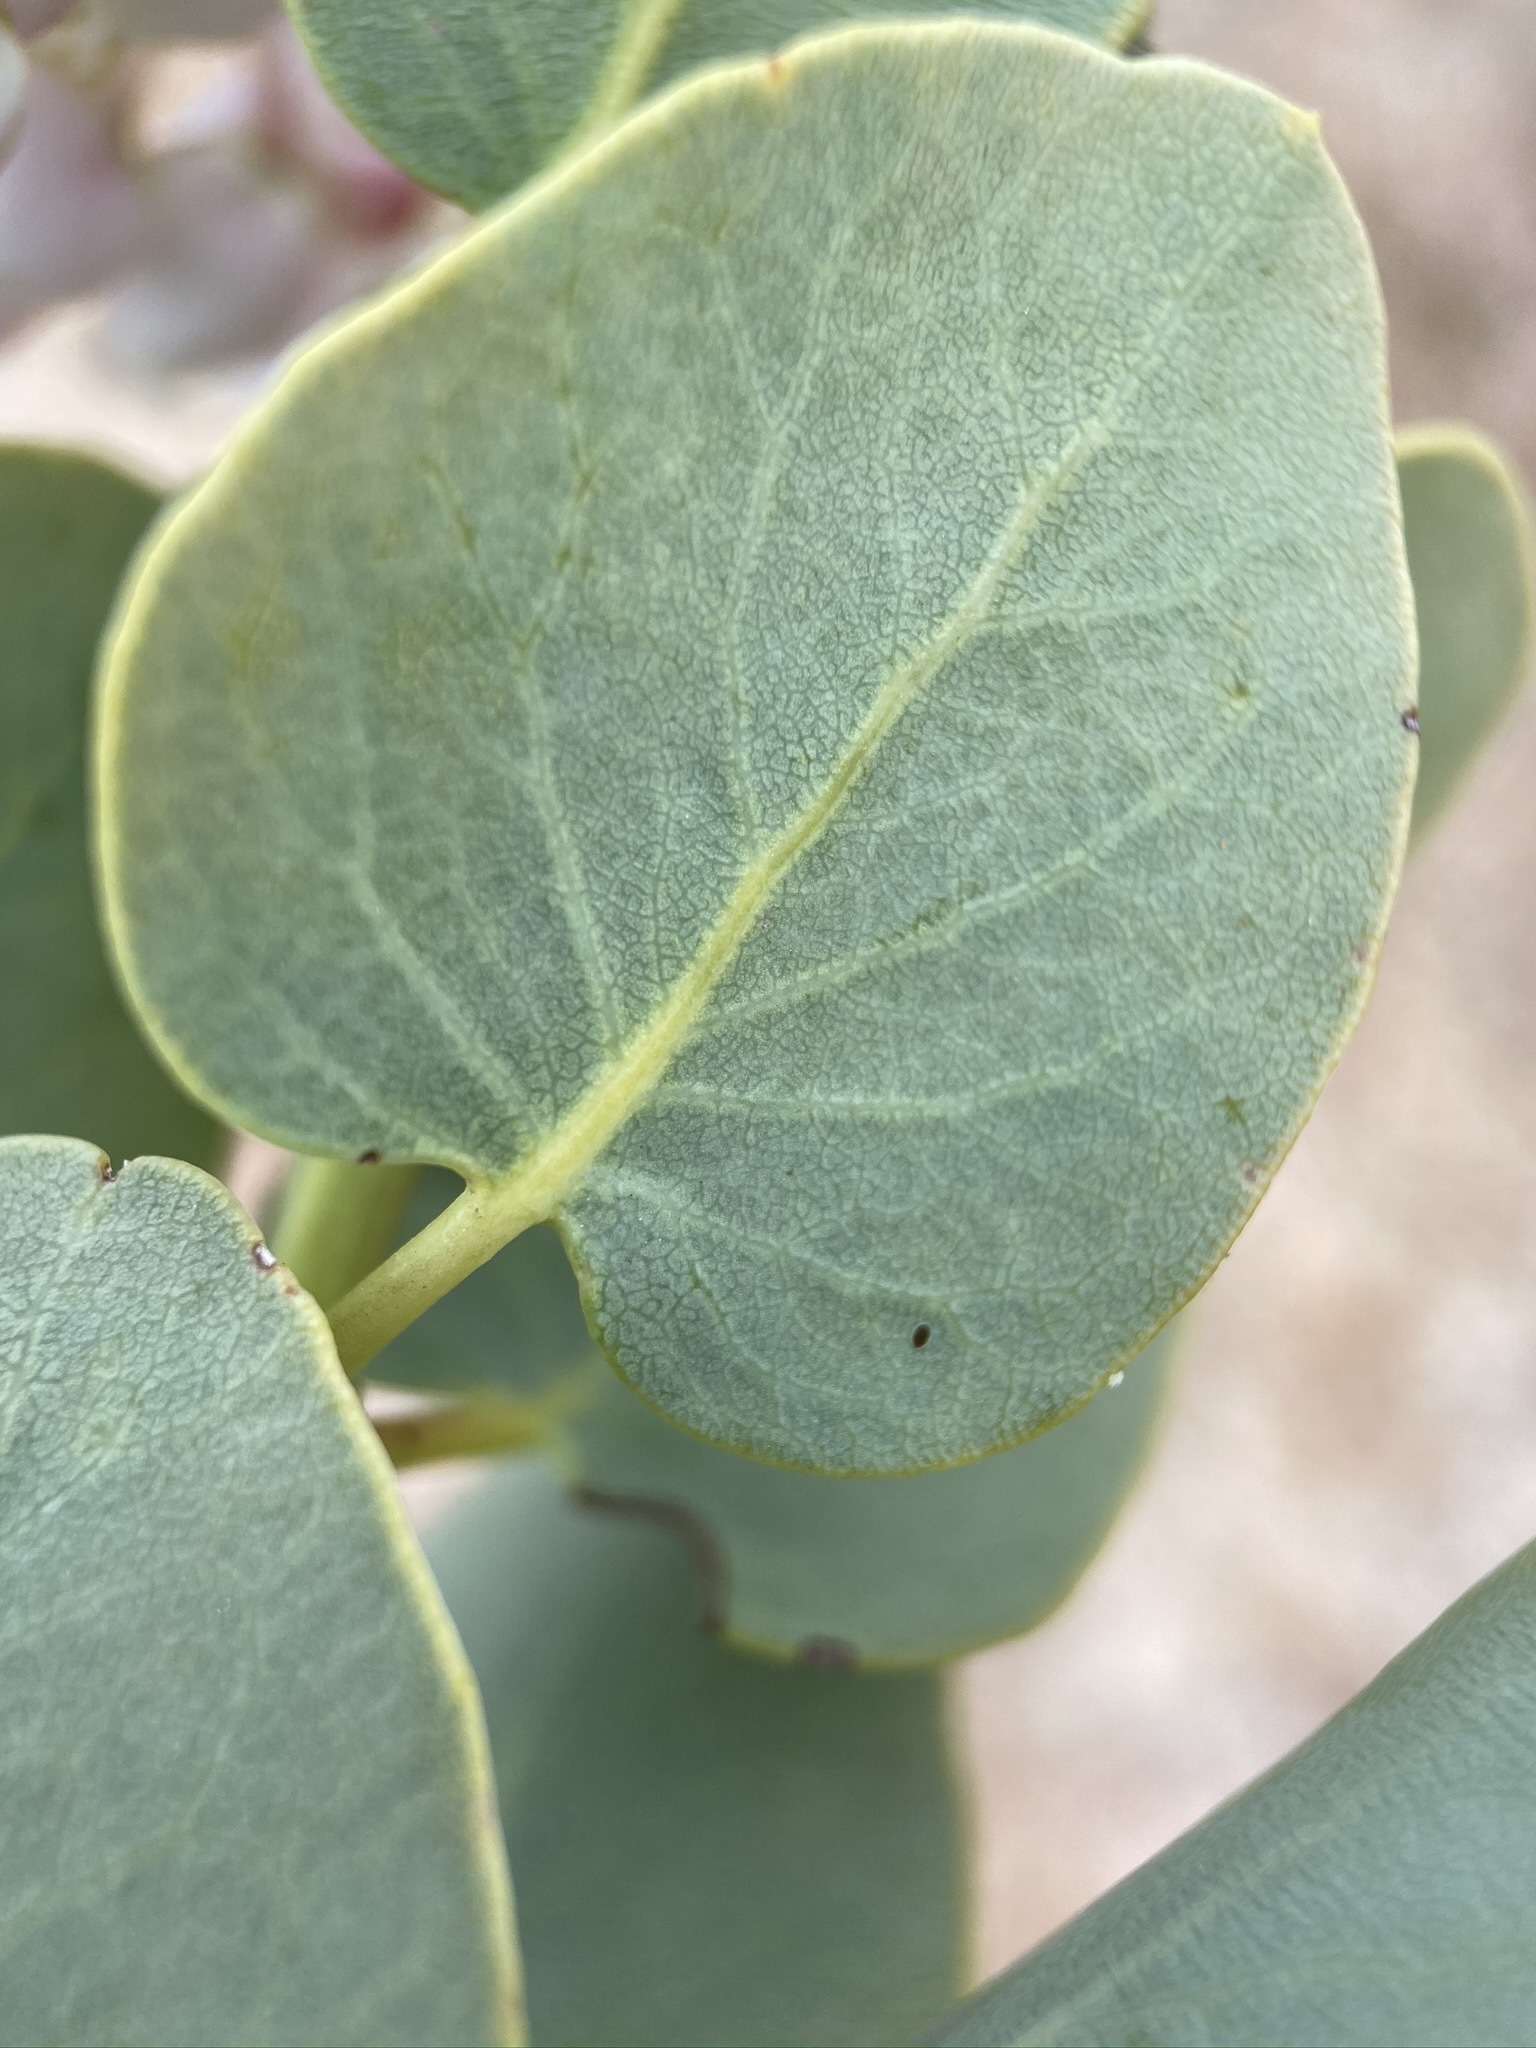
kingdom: Plantae
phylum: Tracheophyta
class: Magnoliopsida
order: Ericales
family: Ericaceae
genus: Arctostaphylos
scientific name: Arctostaphylos glauca
